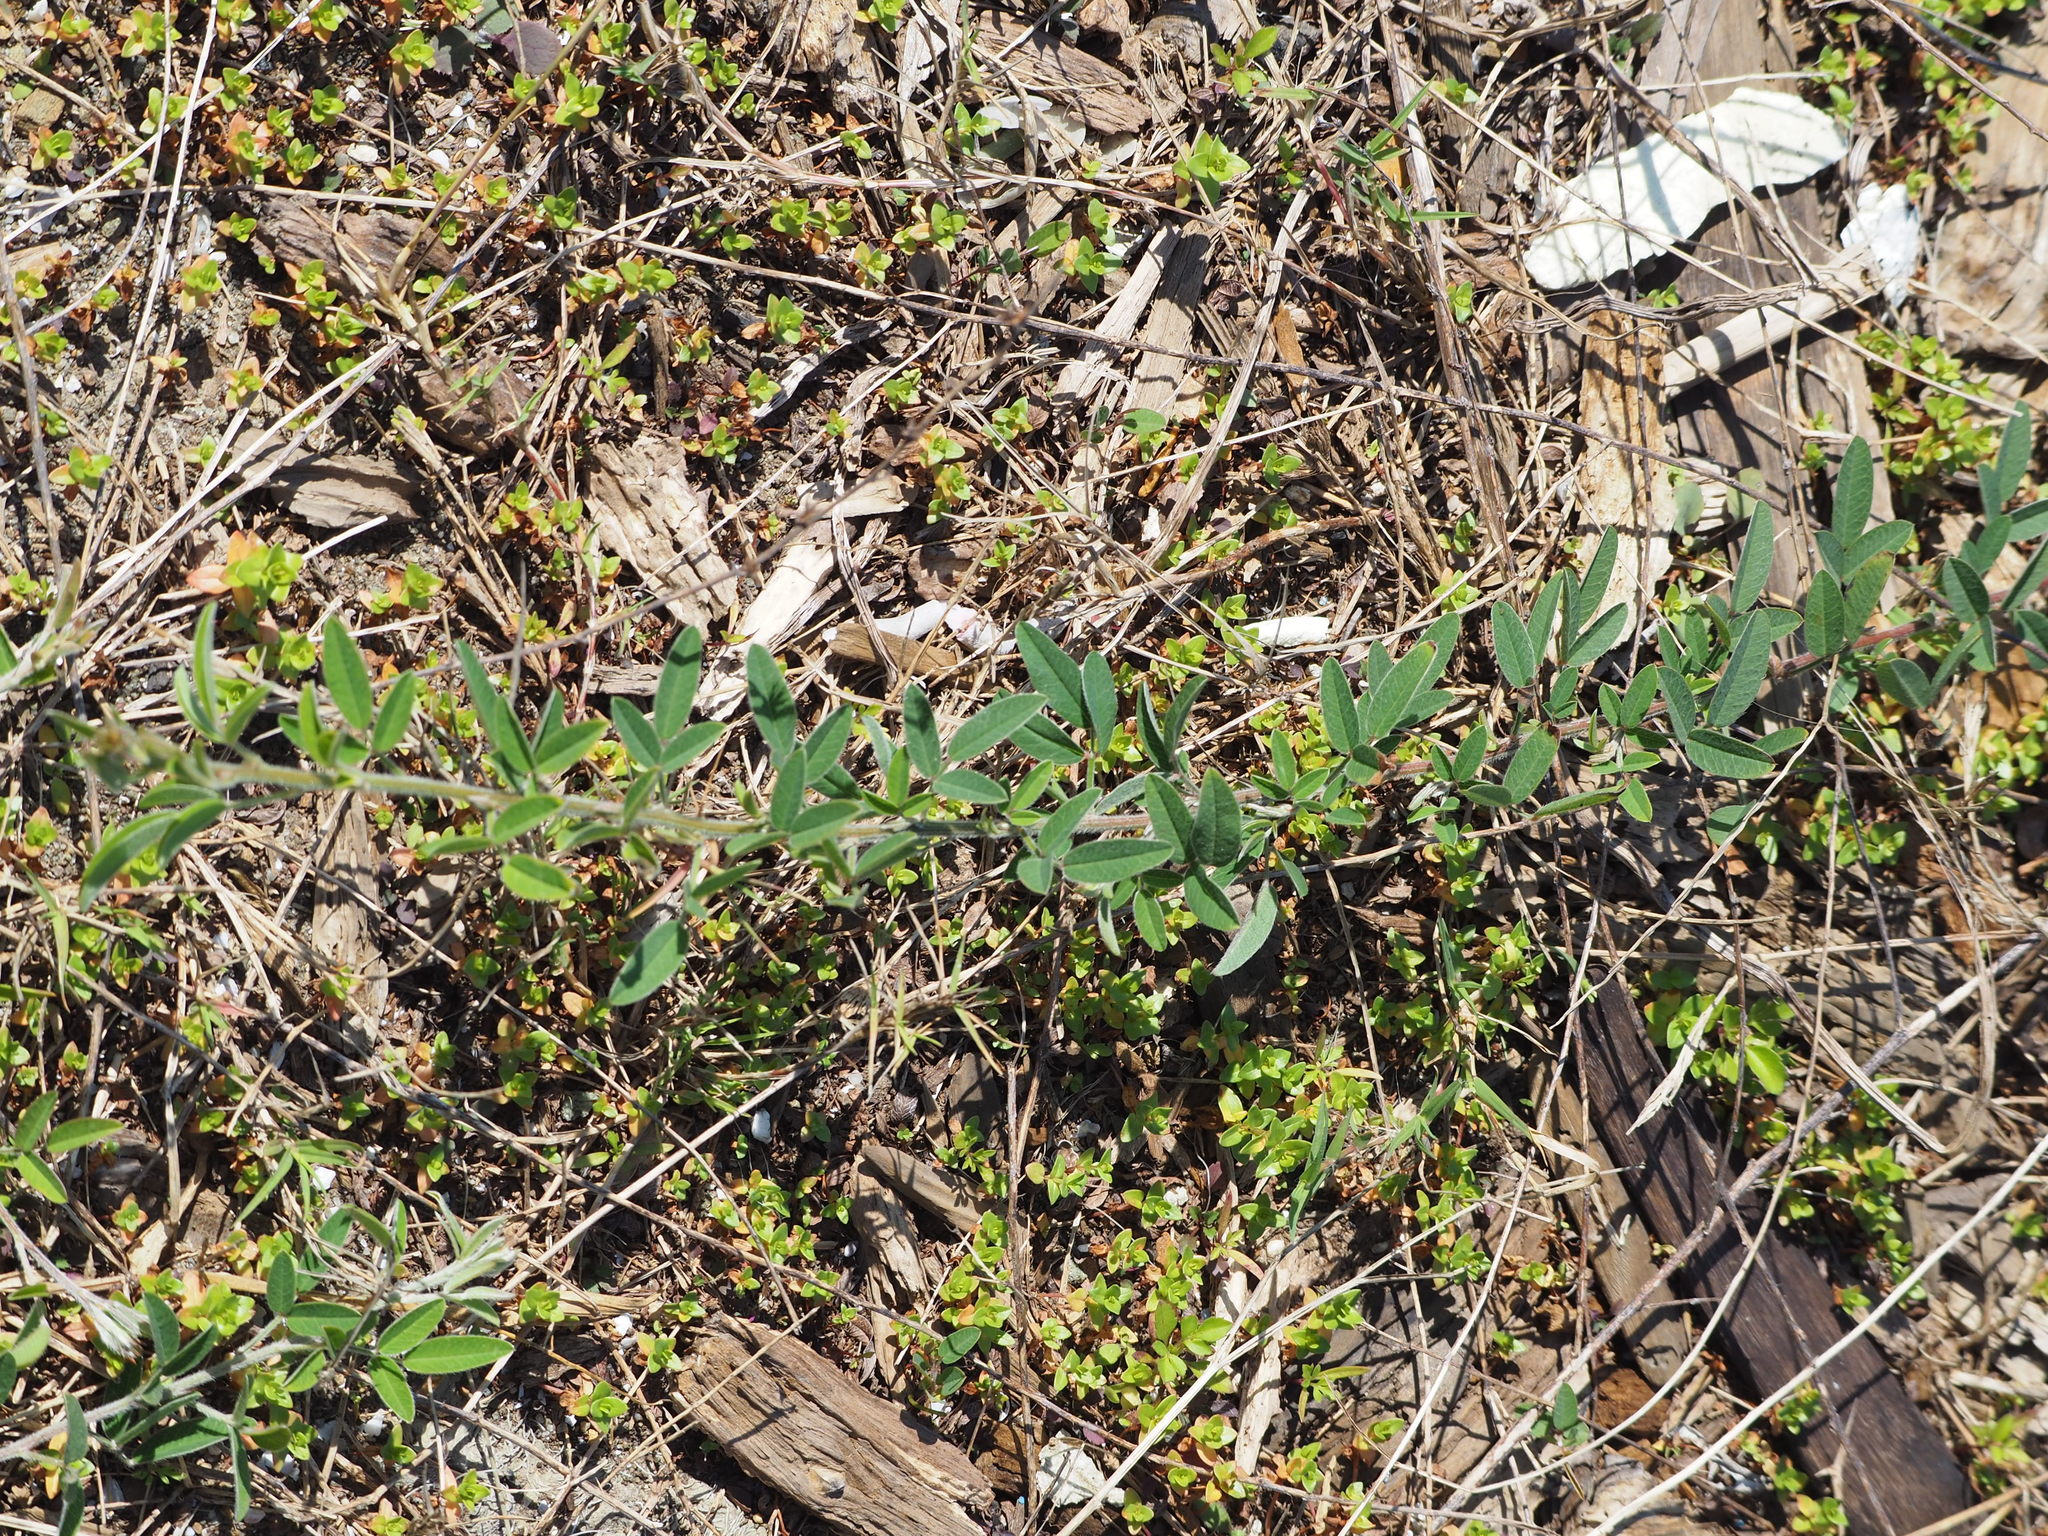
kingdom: Plantae
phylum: Tracheophyta
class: Magnoliopsida
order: Fabales
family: Fabaceae
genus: Lespedeza
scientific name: Lespedeza daurica
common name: Dahurian lespedeza
